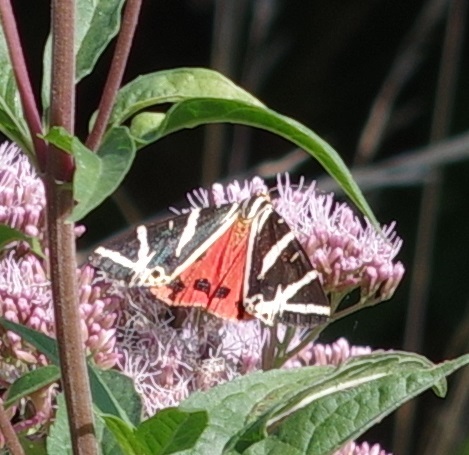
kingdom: Animalia
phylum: Arthropoda
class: Insecta
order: Lepidoptera
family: Erebidae
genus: Euplagia
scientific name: Euplagia quadripunctaria
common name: Jersey tiger
